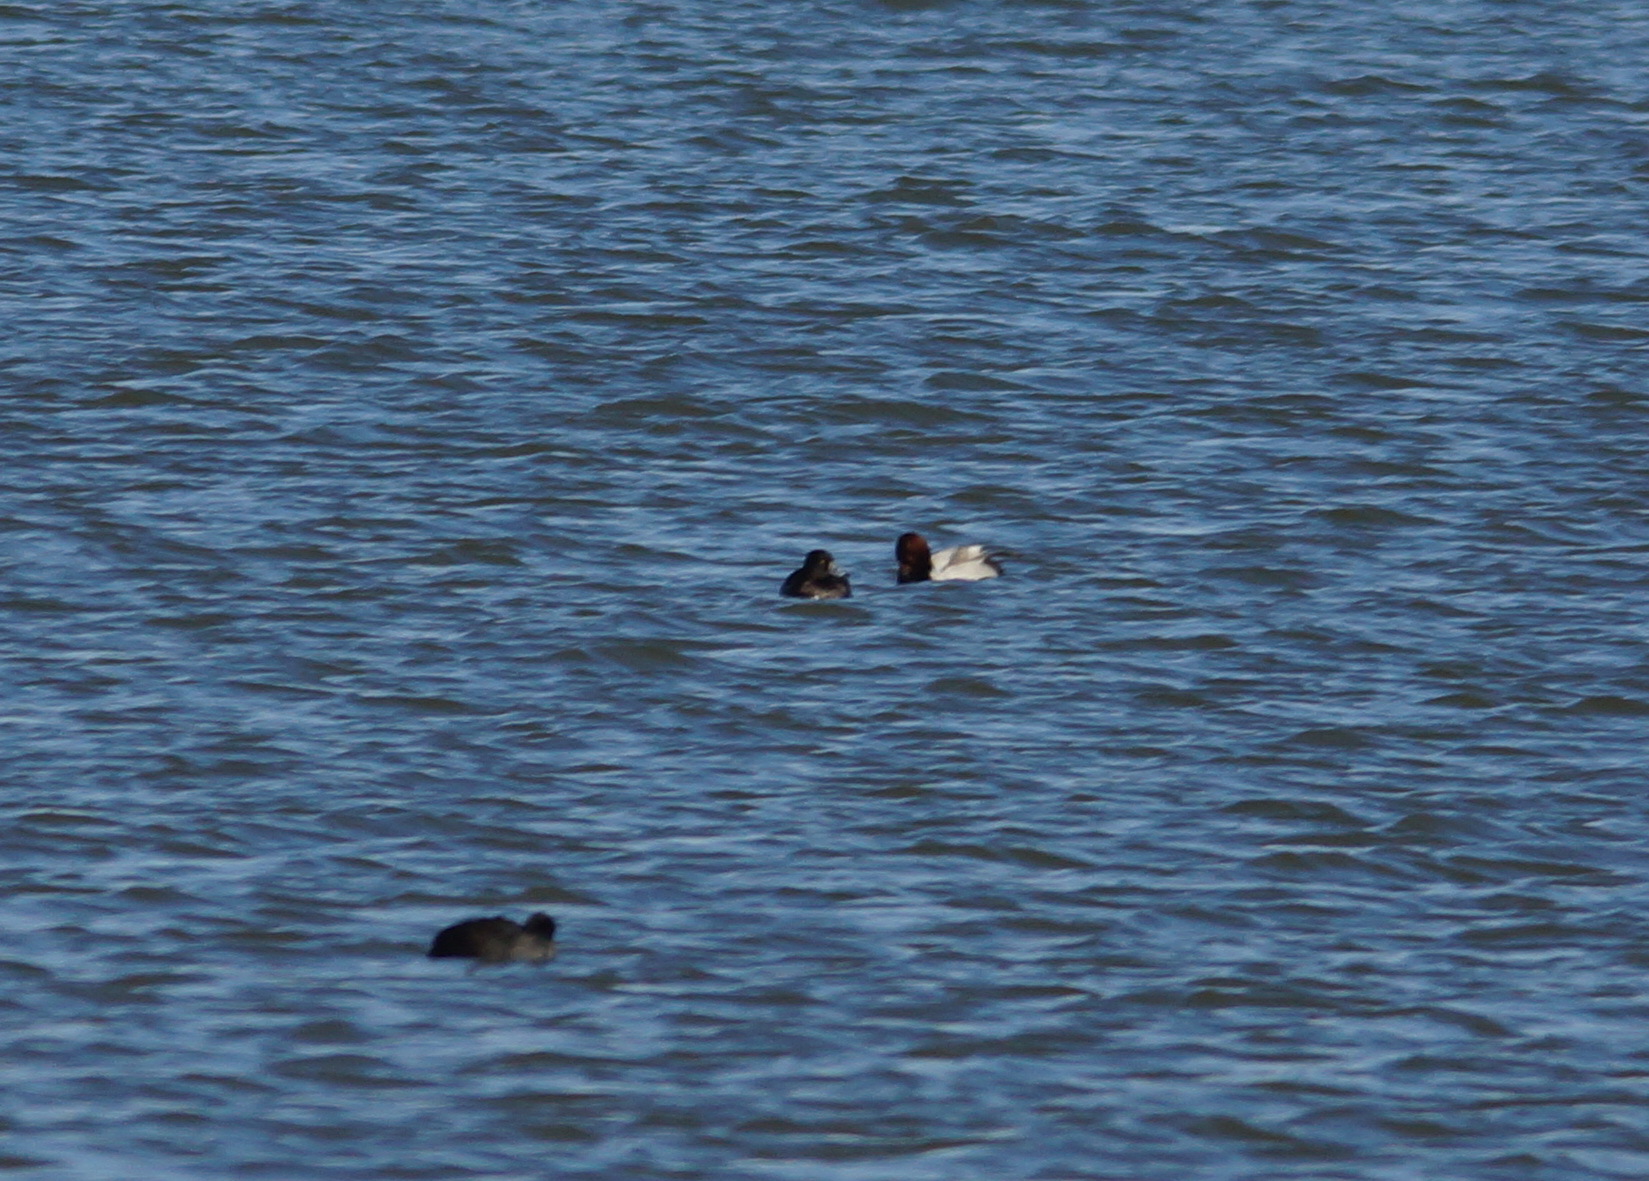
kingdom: Animalia
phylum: Chordata
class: Aves
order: Anseriformes
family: Anatidae
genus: Aythya
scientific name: Aythya ferina
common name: Common pochard
